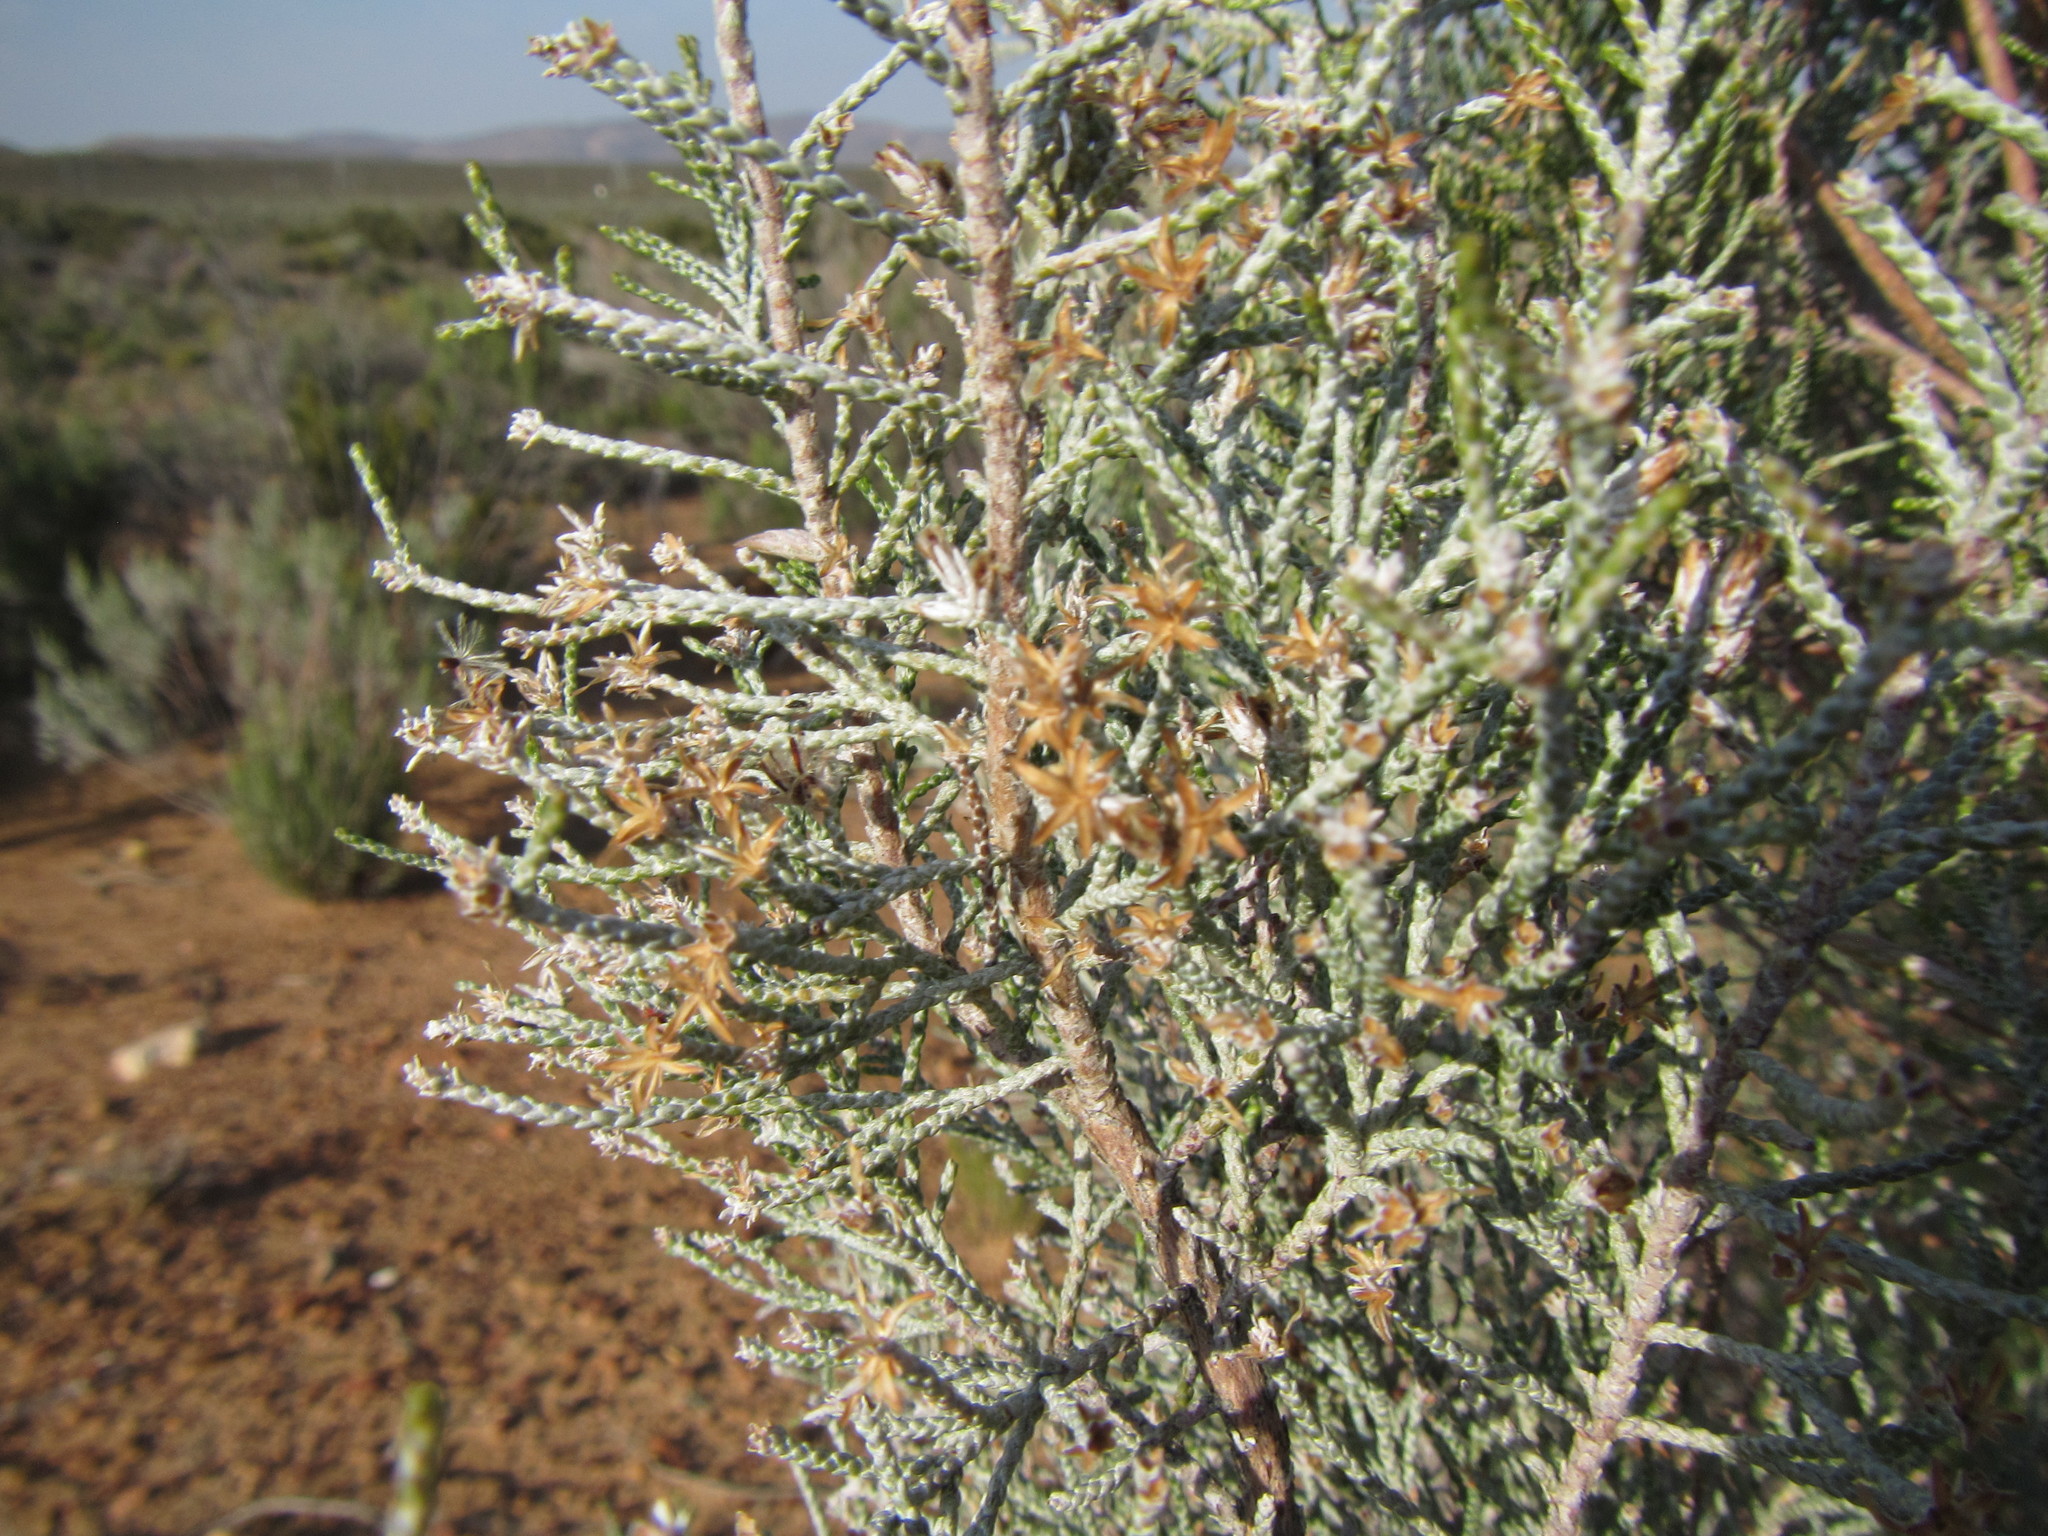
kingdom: Plantae
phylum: Tracheophyta
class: Magnoliopsida
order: Asterales
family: Asteraceae
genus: Dicerothamnus
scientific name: Dicerothamnus rhinocerotis
